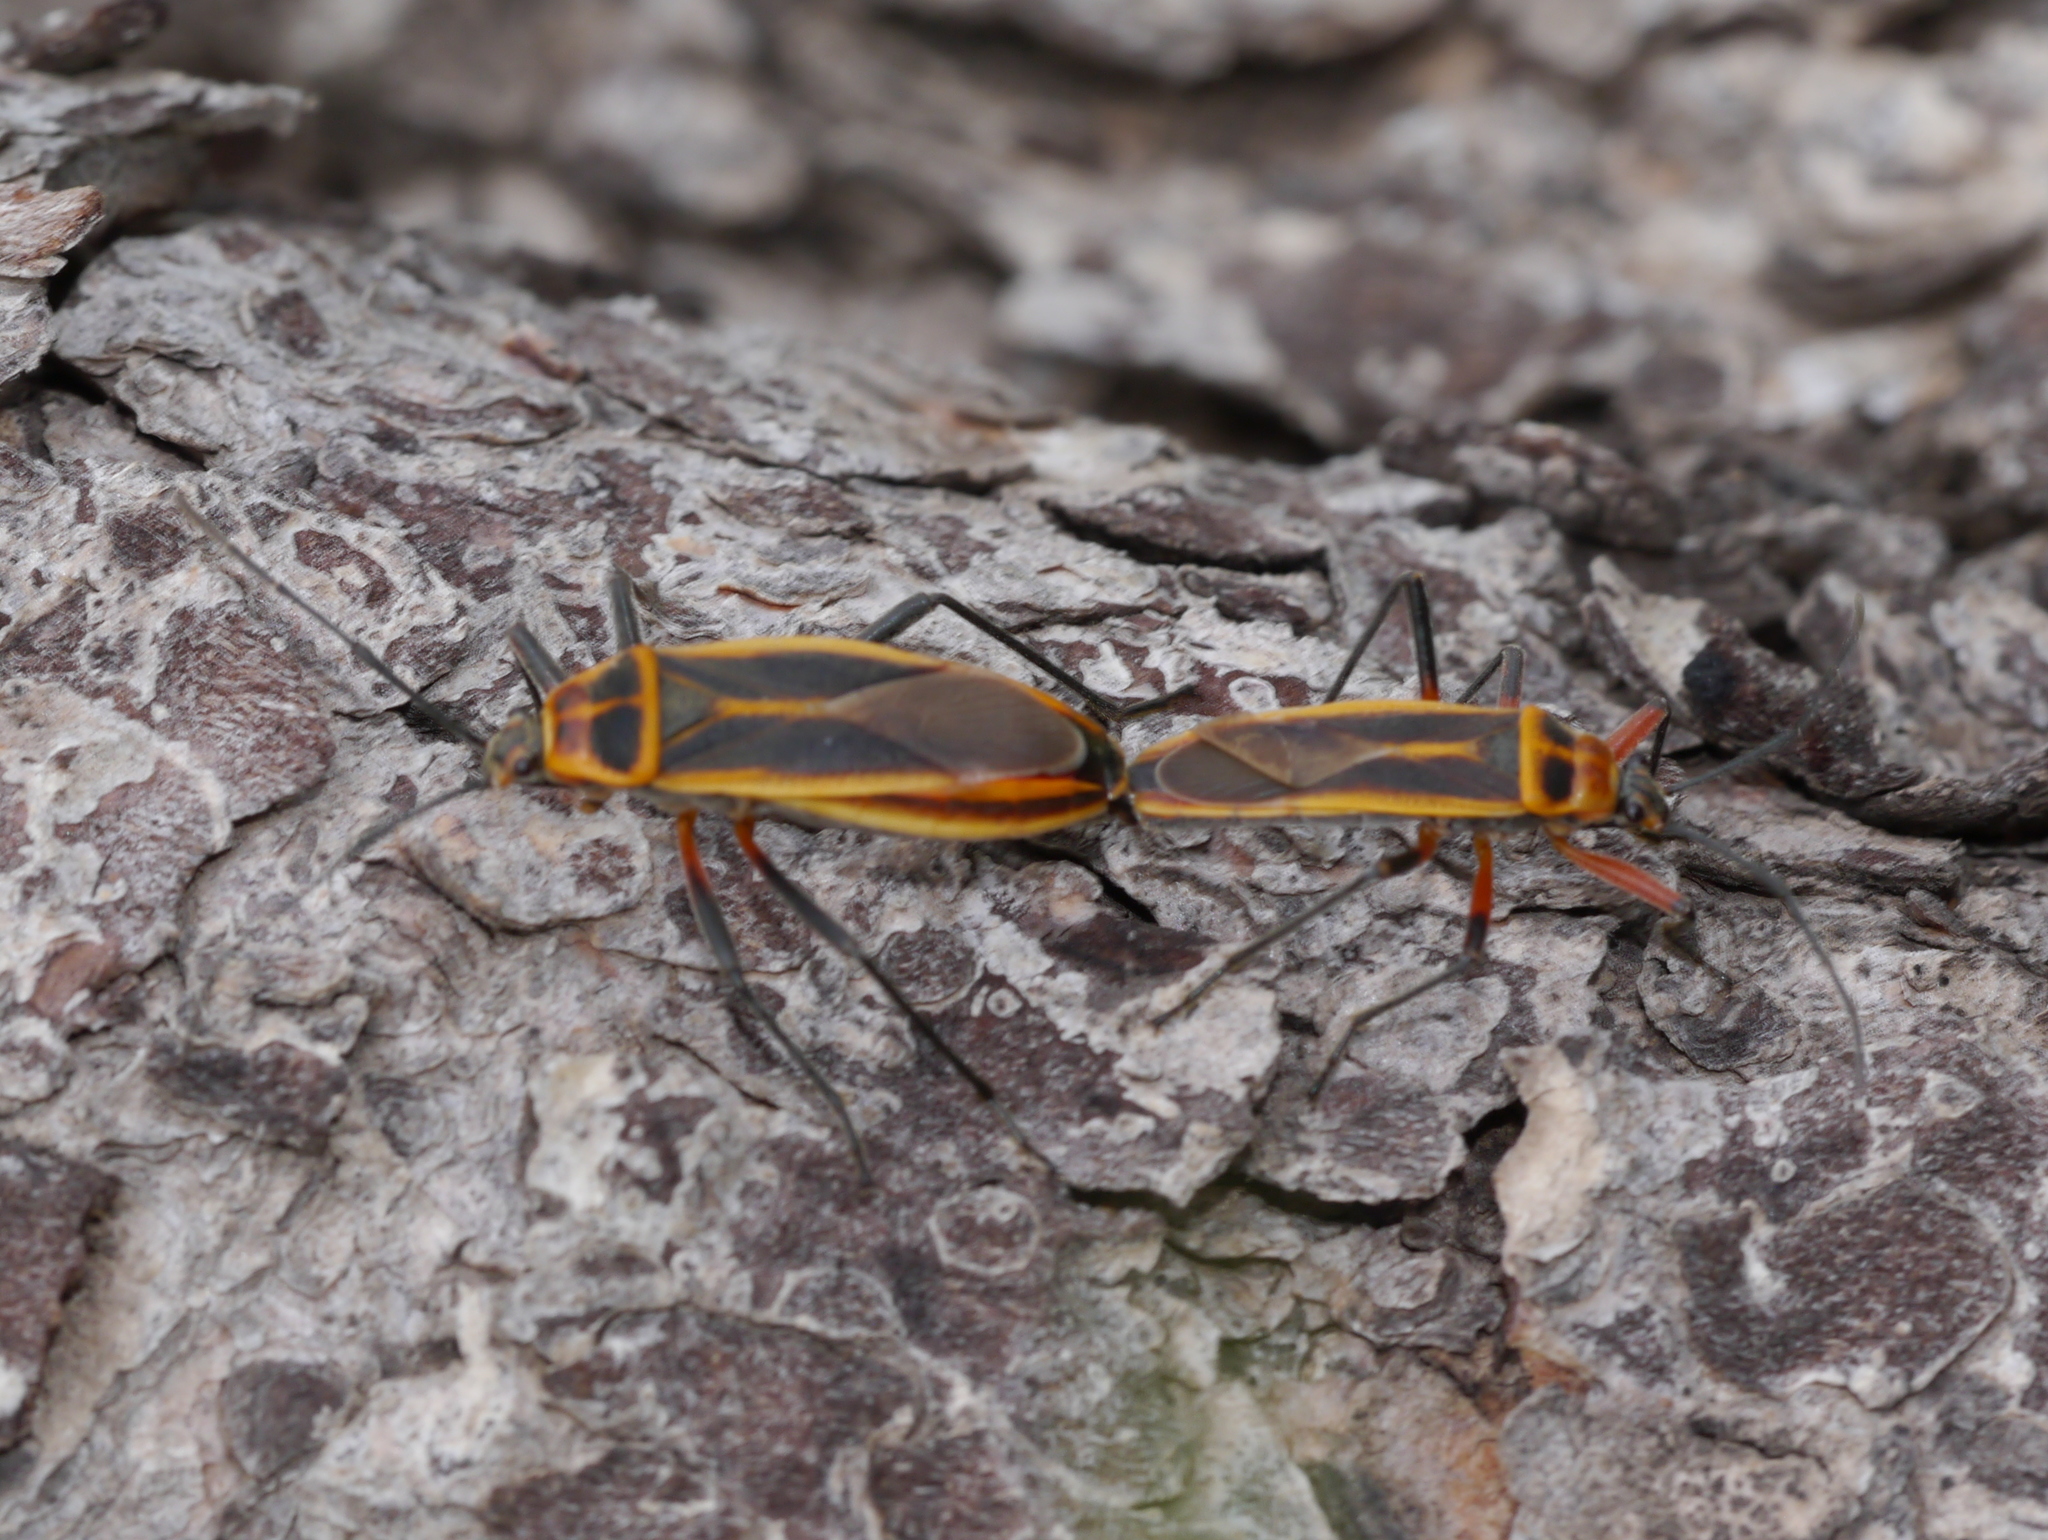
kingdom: Animalia
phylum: Arthropoda
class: Insecta
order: Hemiptera
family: Largidae
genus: Stenomacra
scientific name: Stenomacra marginella
